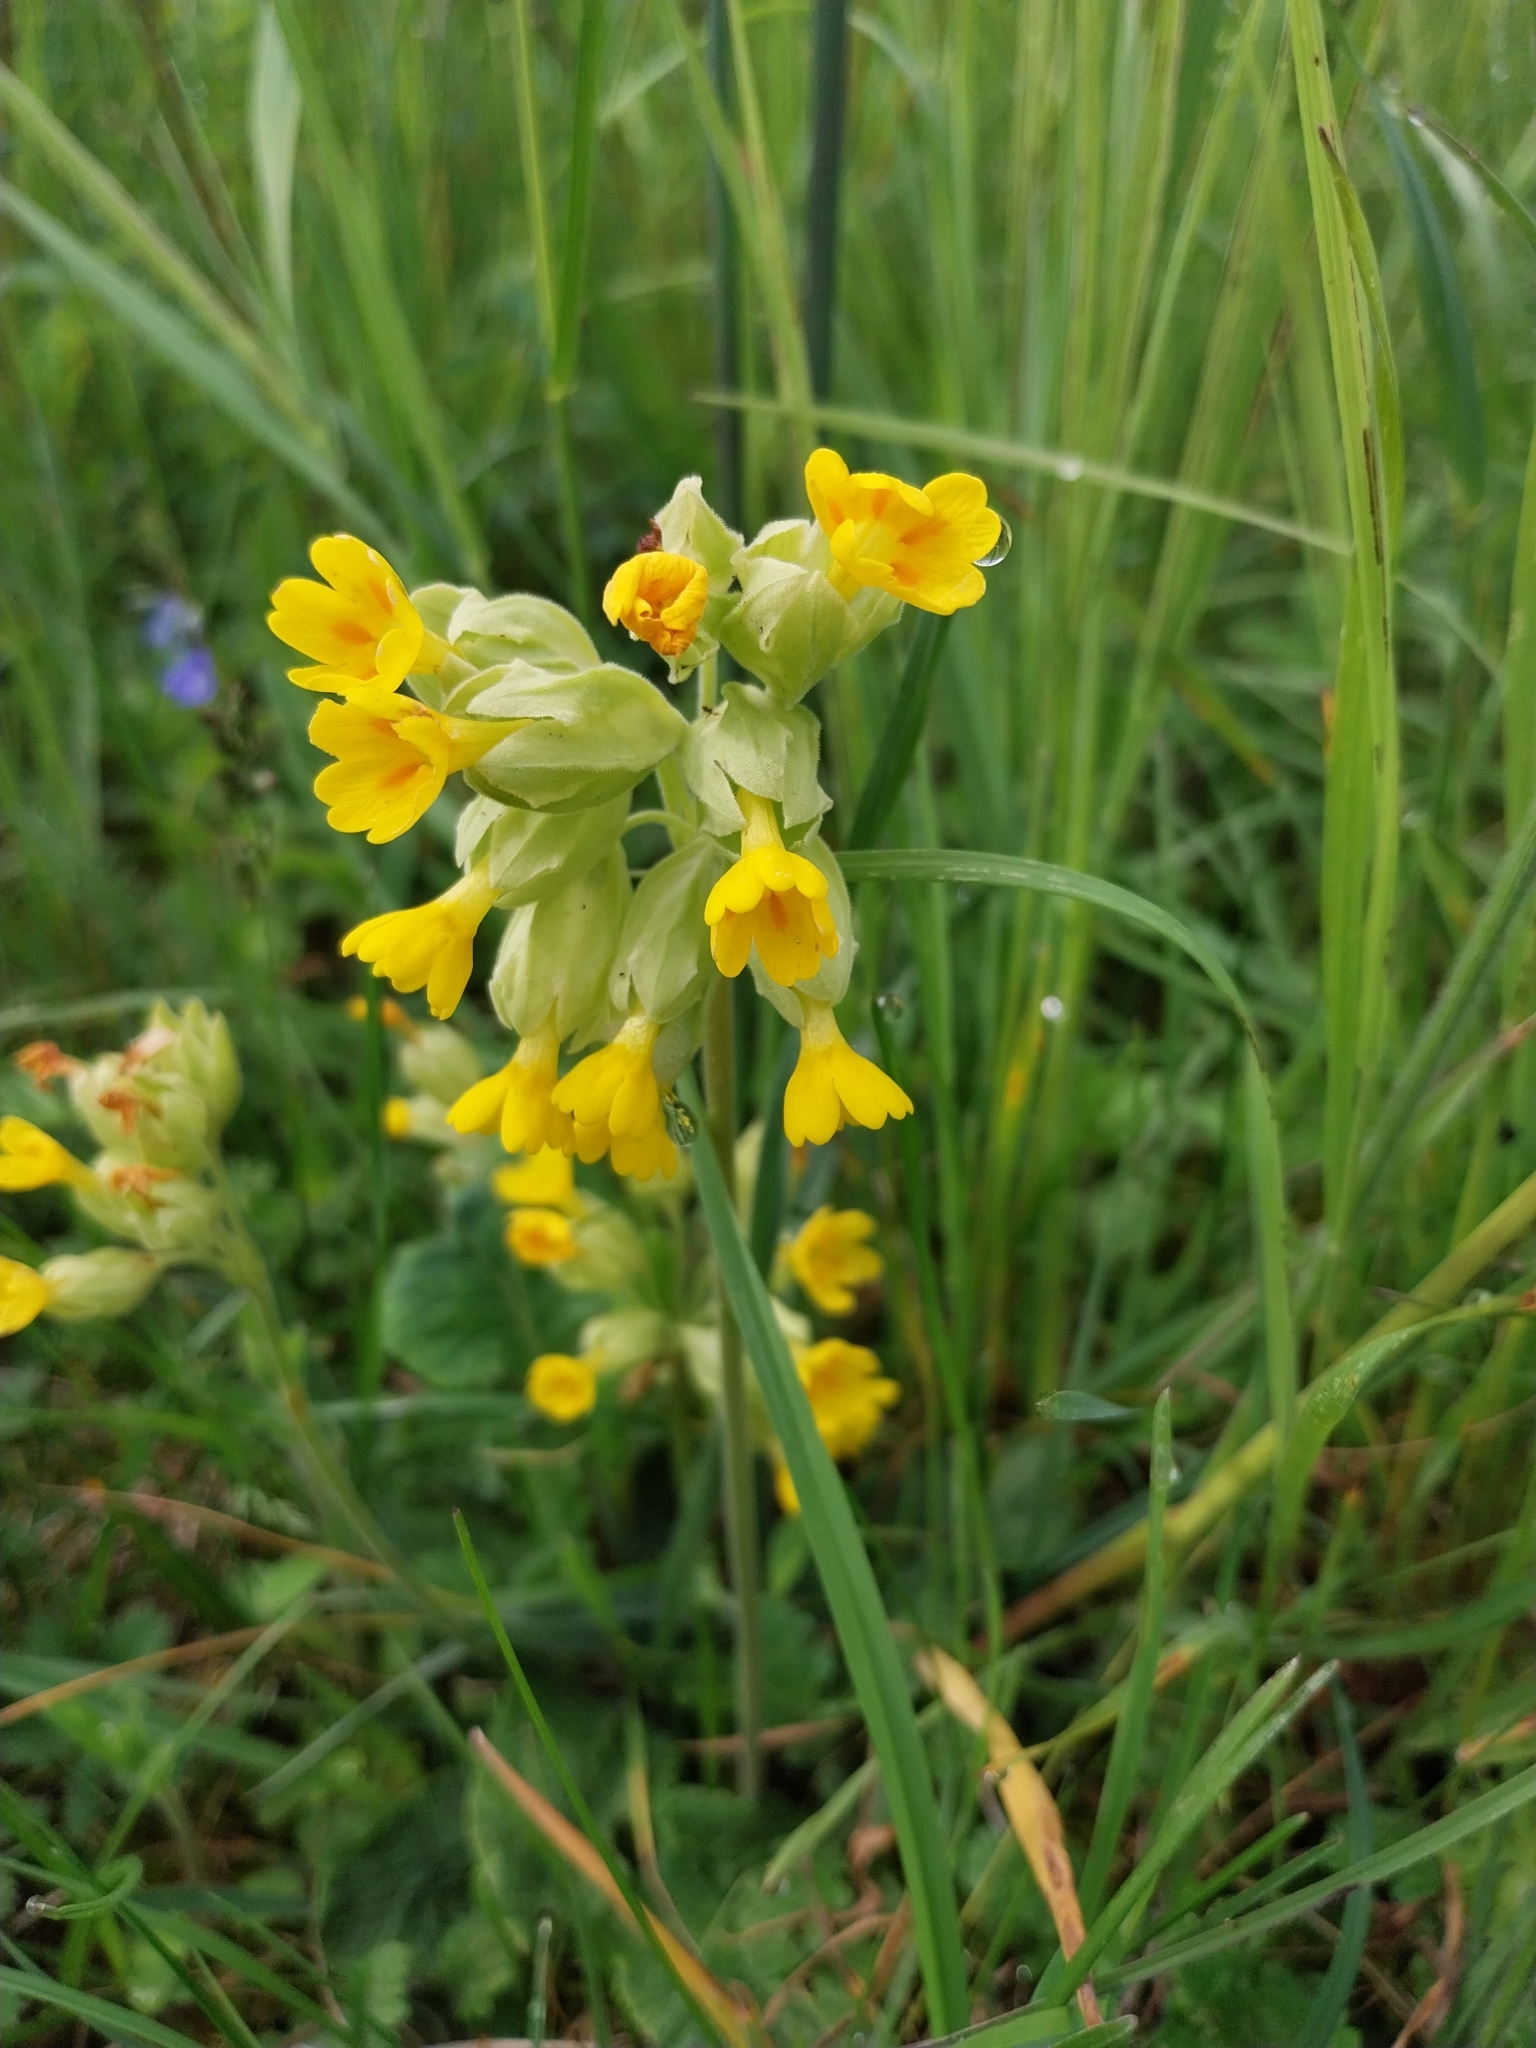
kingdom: Plantae
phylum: Tracheophyta
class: Magnoliopsida
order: Ericales
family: Primulaceae
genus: Primula
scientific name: Primula veris
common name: Cowslip
